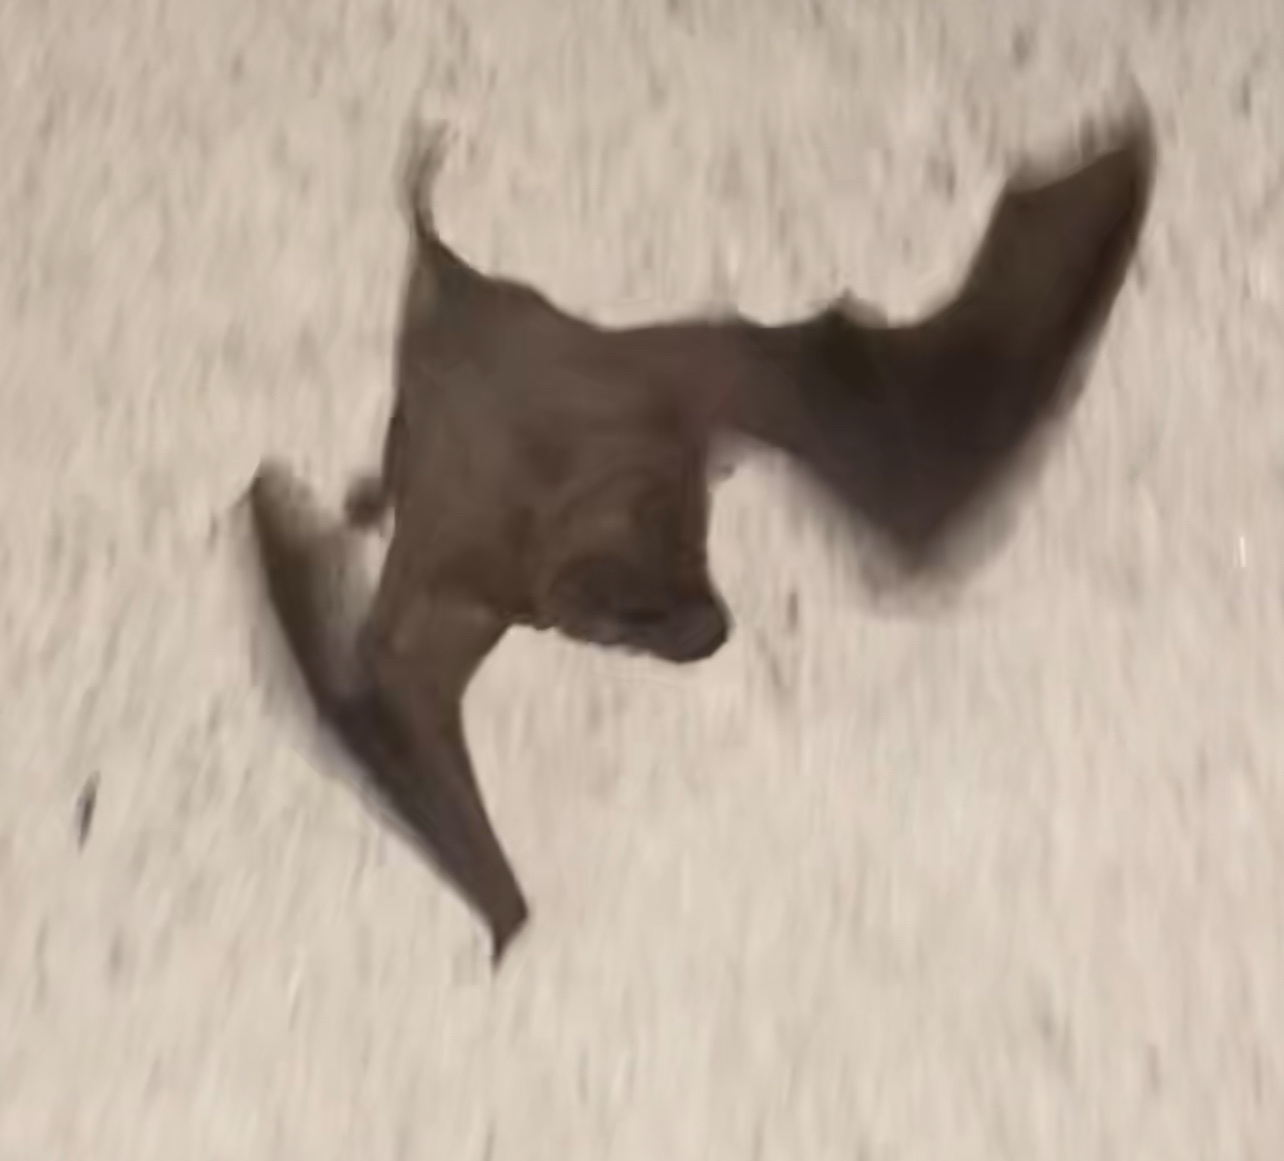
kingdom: Animalia
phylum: Chordata
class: Mammalia
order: Chiroptera
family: Molossidae
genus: Tadarida
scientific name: Tadarida brasiliensis
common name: Mexican free-tailed bat
